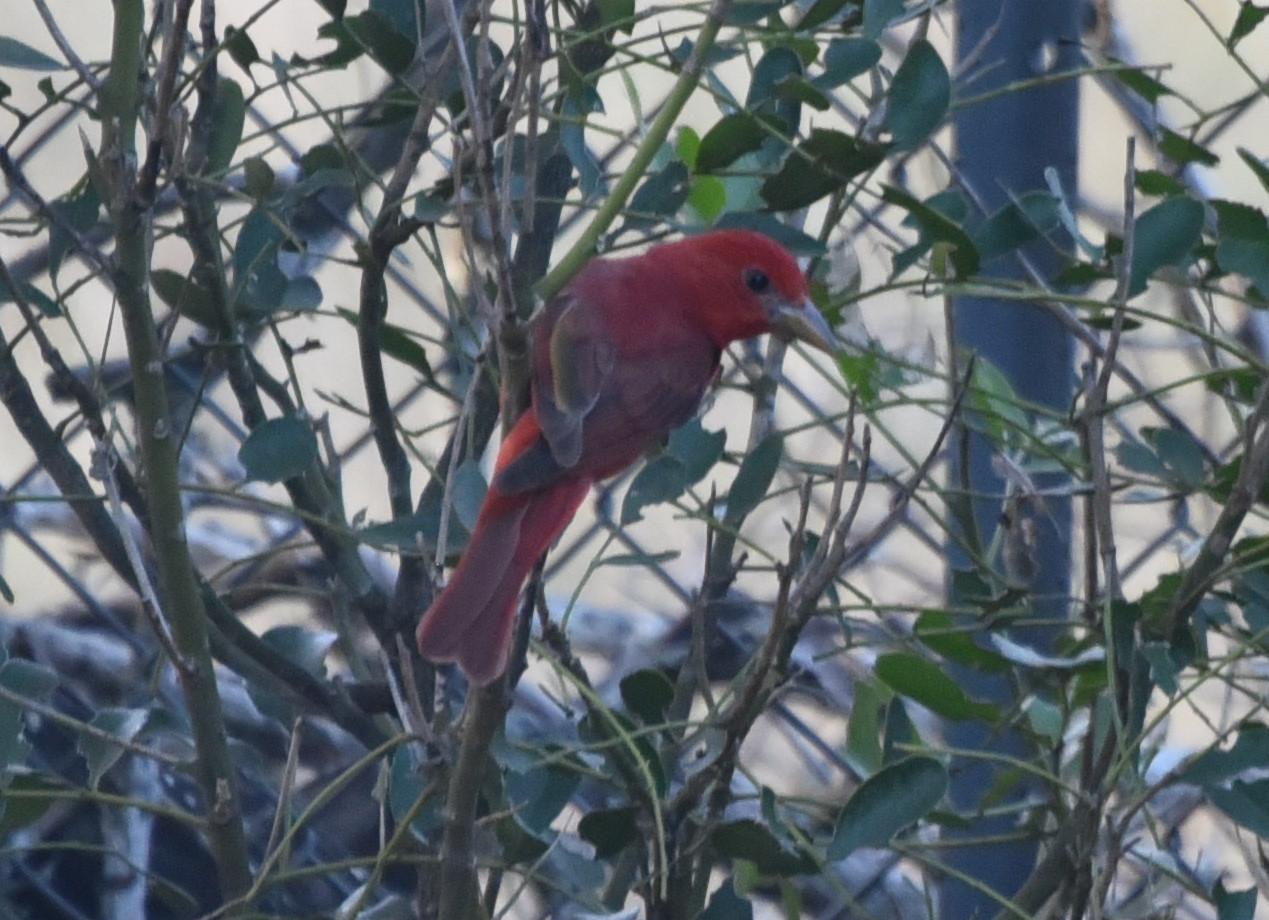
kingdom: Animalia
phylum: Chordata
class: Aves
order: Passeriformes
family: Cardinalidae
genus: Piranga
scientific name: Piranga rubra
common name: Summer tanager
